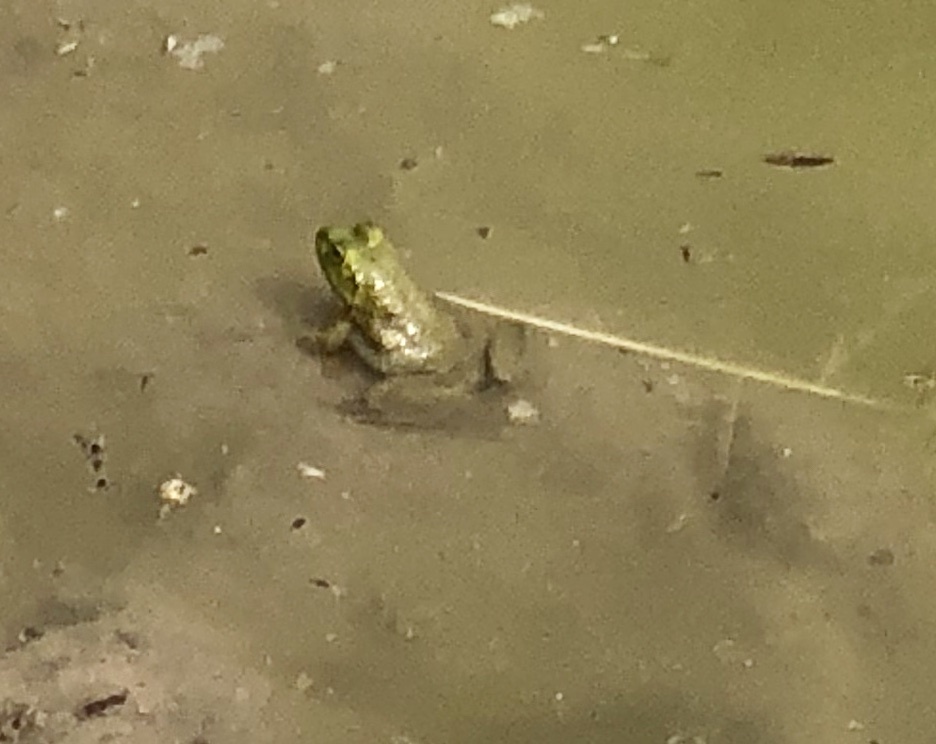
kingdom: Animalia
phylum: Chordata
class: Amphibia
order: Anura
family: Ranidae
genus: Lithobates
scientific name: Lithobates catesbeianus
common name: American bullfrog
